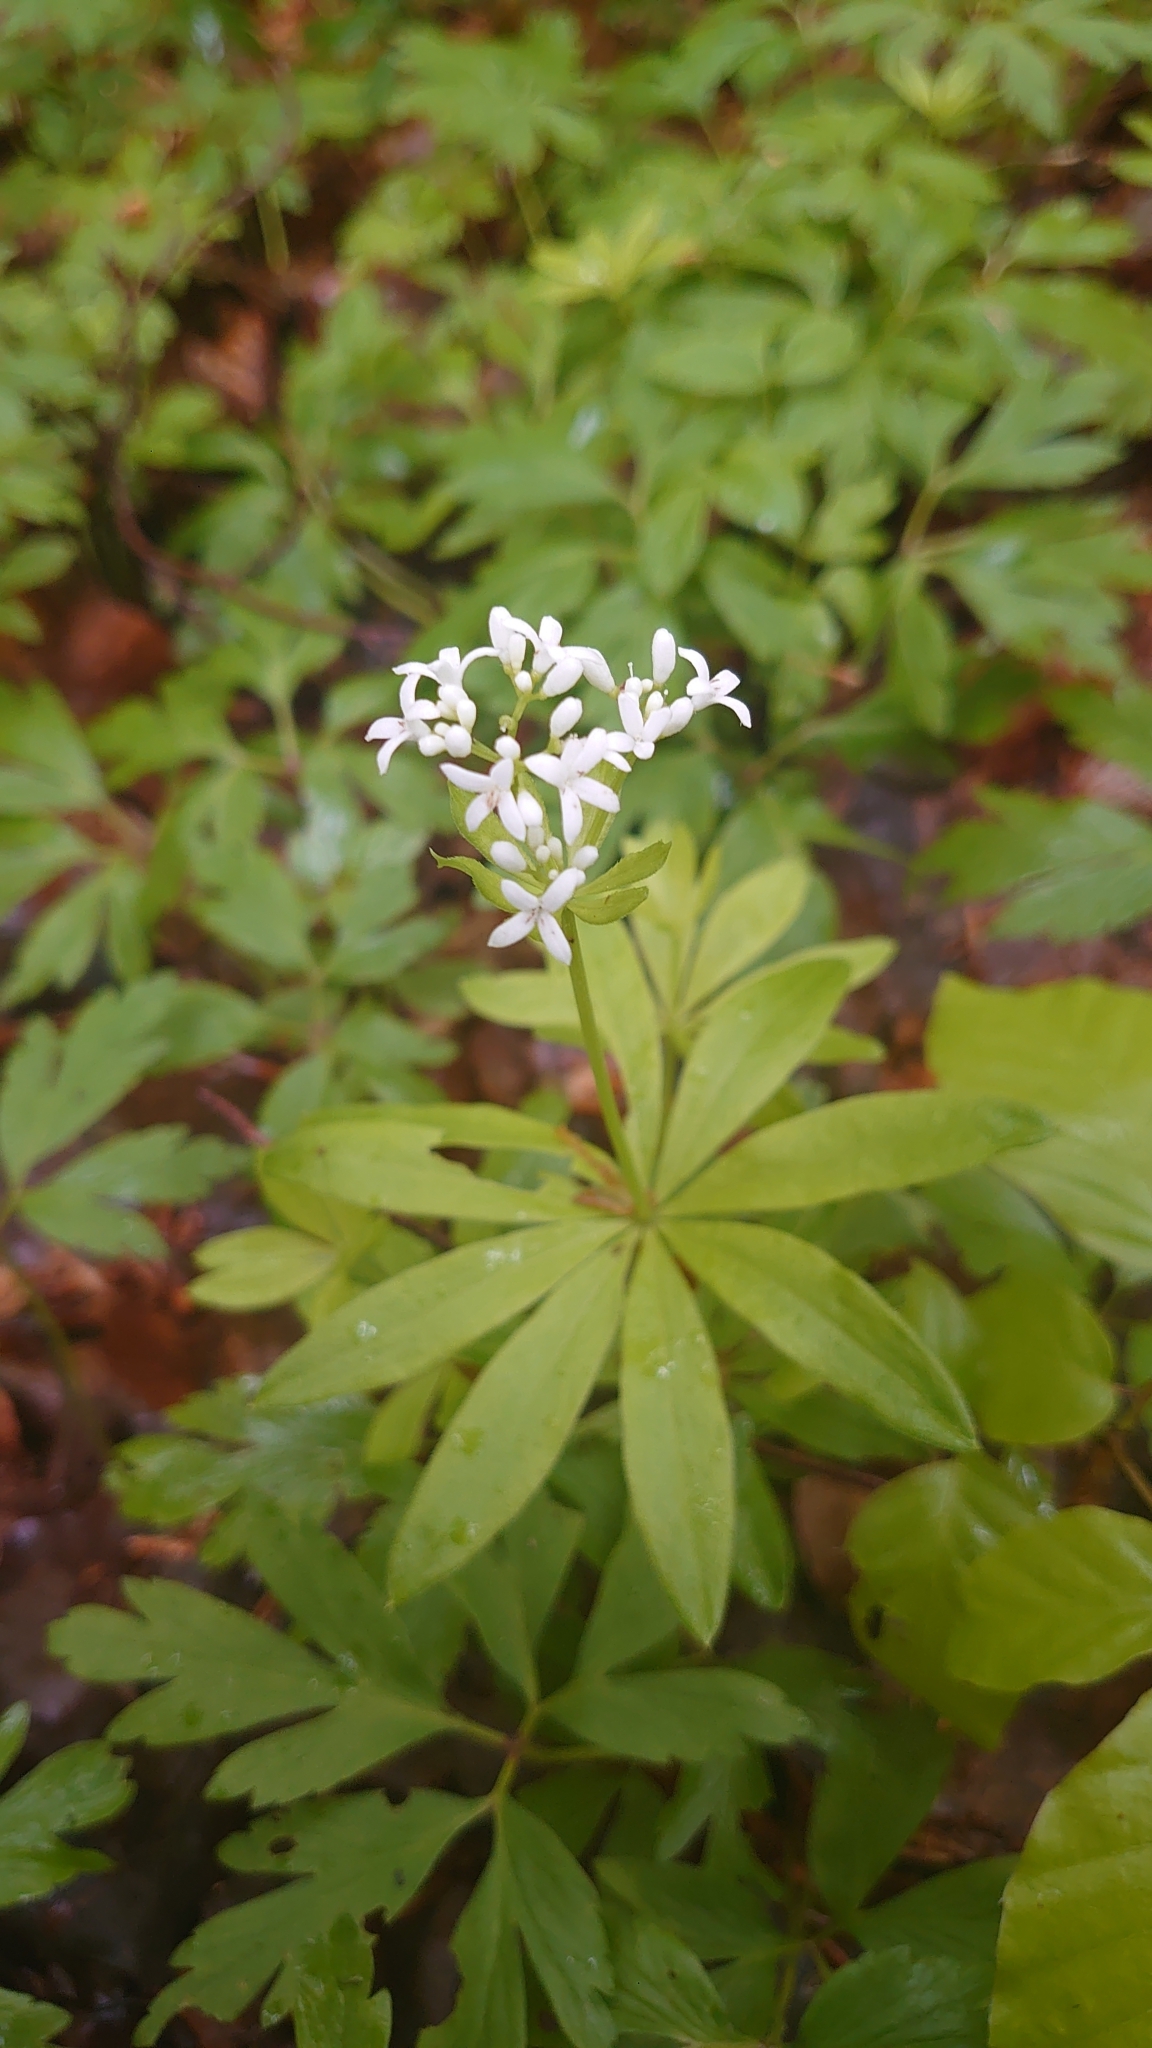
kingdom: Plantae
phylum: Tracheophyta
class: Magnoliopsida
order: Gentianales
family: Rubiaceae
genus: Galium
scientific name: Galium odoratum
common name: Sweet woodruff
